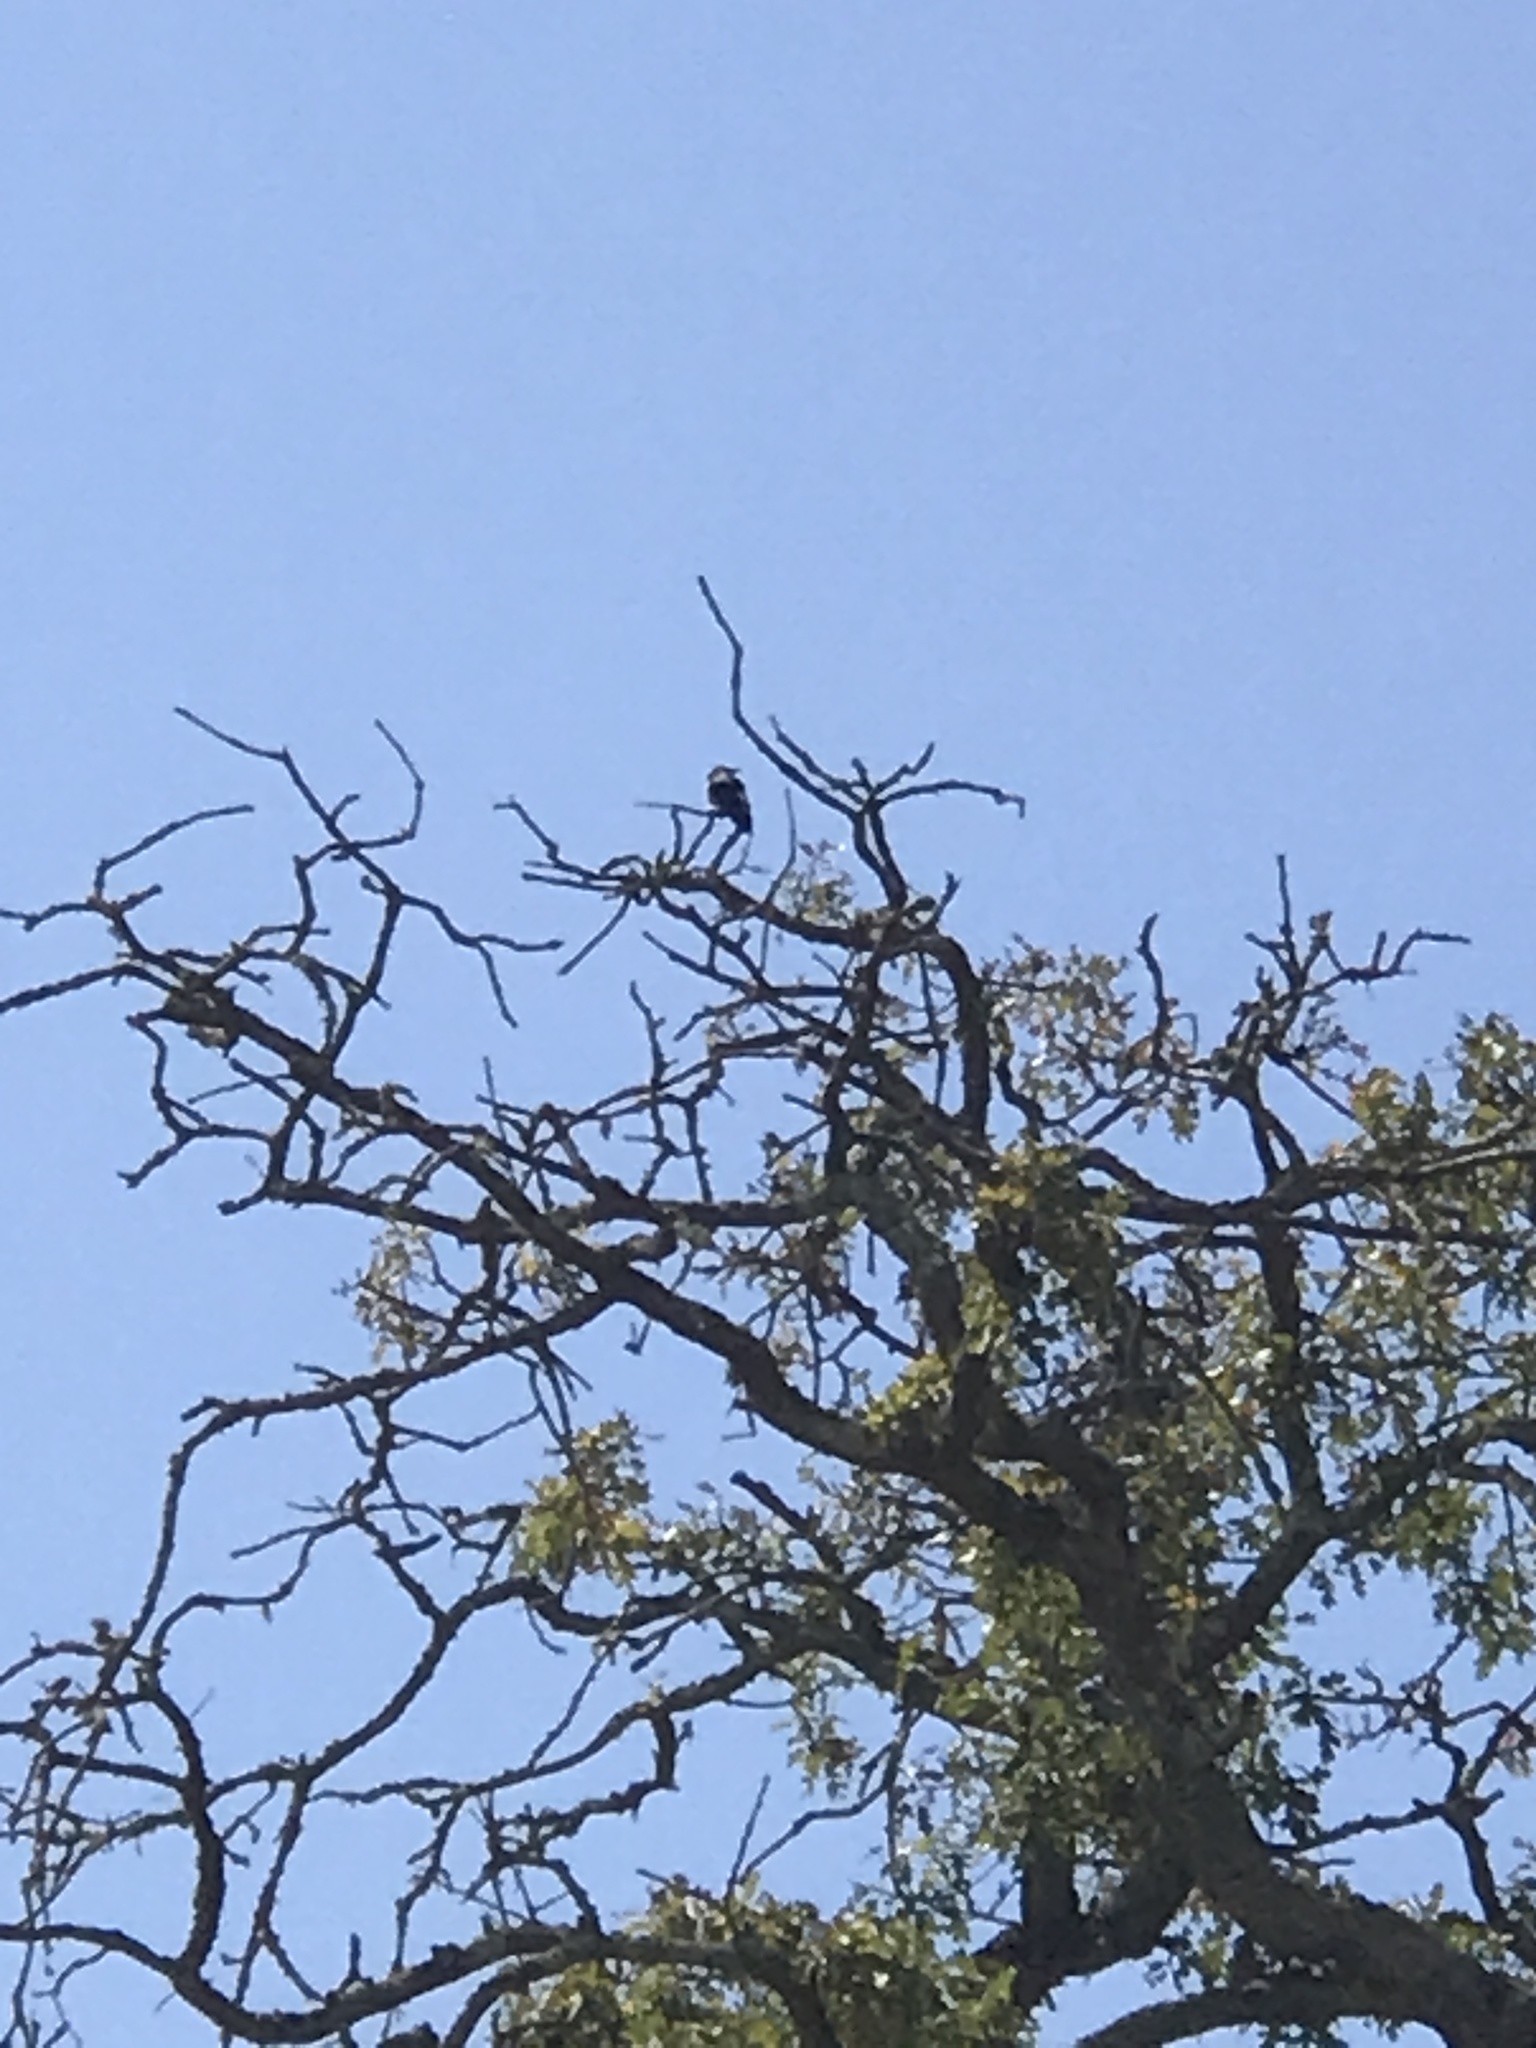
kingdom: Animalia
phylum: Chordata
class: Aves
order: Piciformes
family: Picidae
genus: Melanerpes
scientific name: Melanerpes formicivorus
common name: Acorn woodpecker
